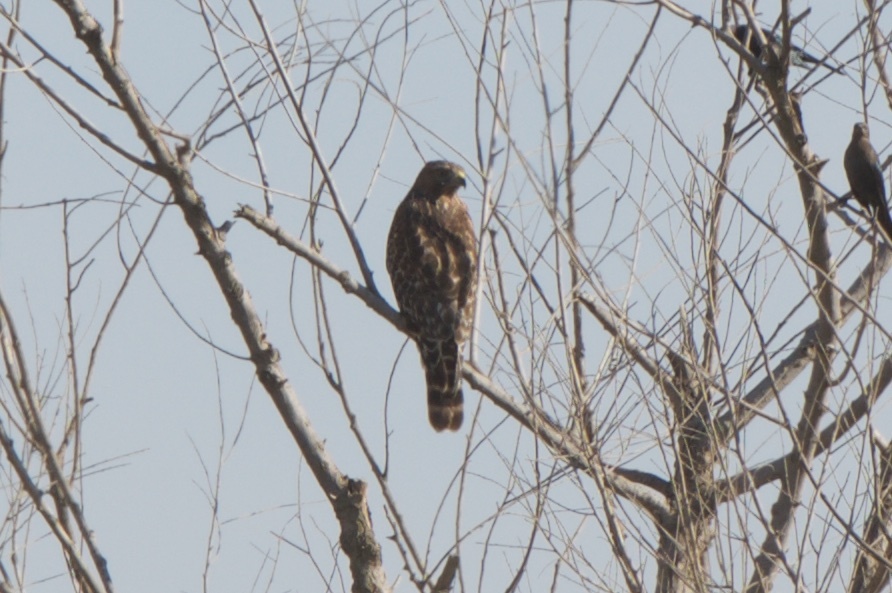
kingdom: Animalia
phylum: Chordata
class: Aves
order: Accipitriformes
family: Accipitridae
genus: Buteo
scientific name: Buteo lineatus
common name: Red-shouldered hawk
